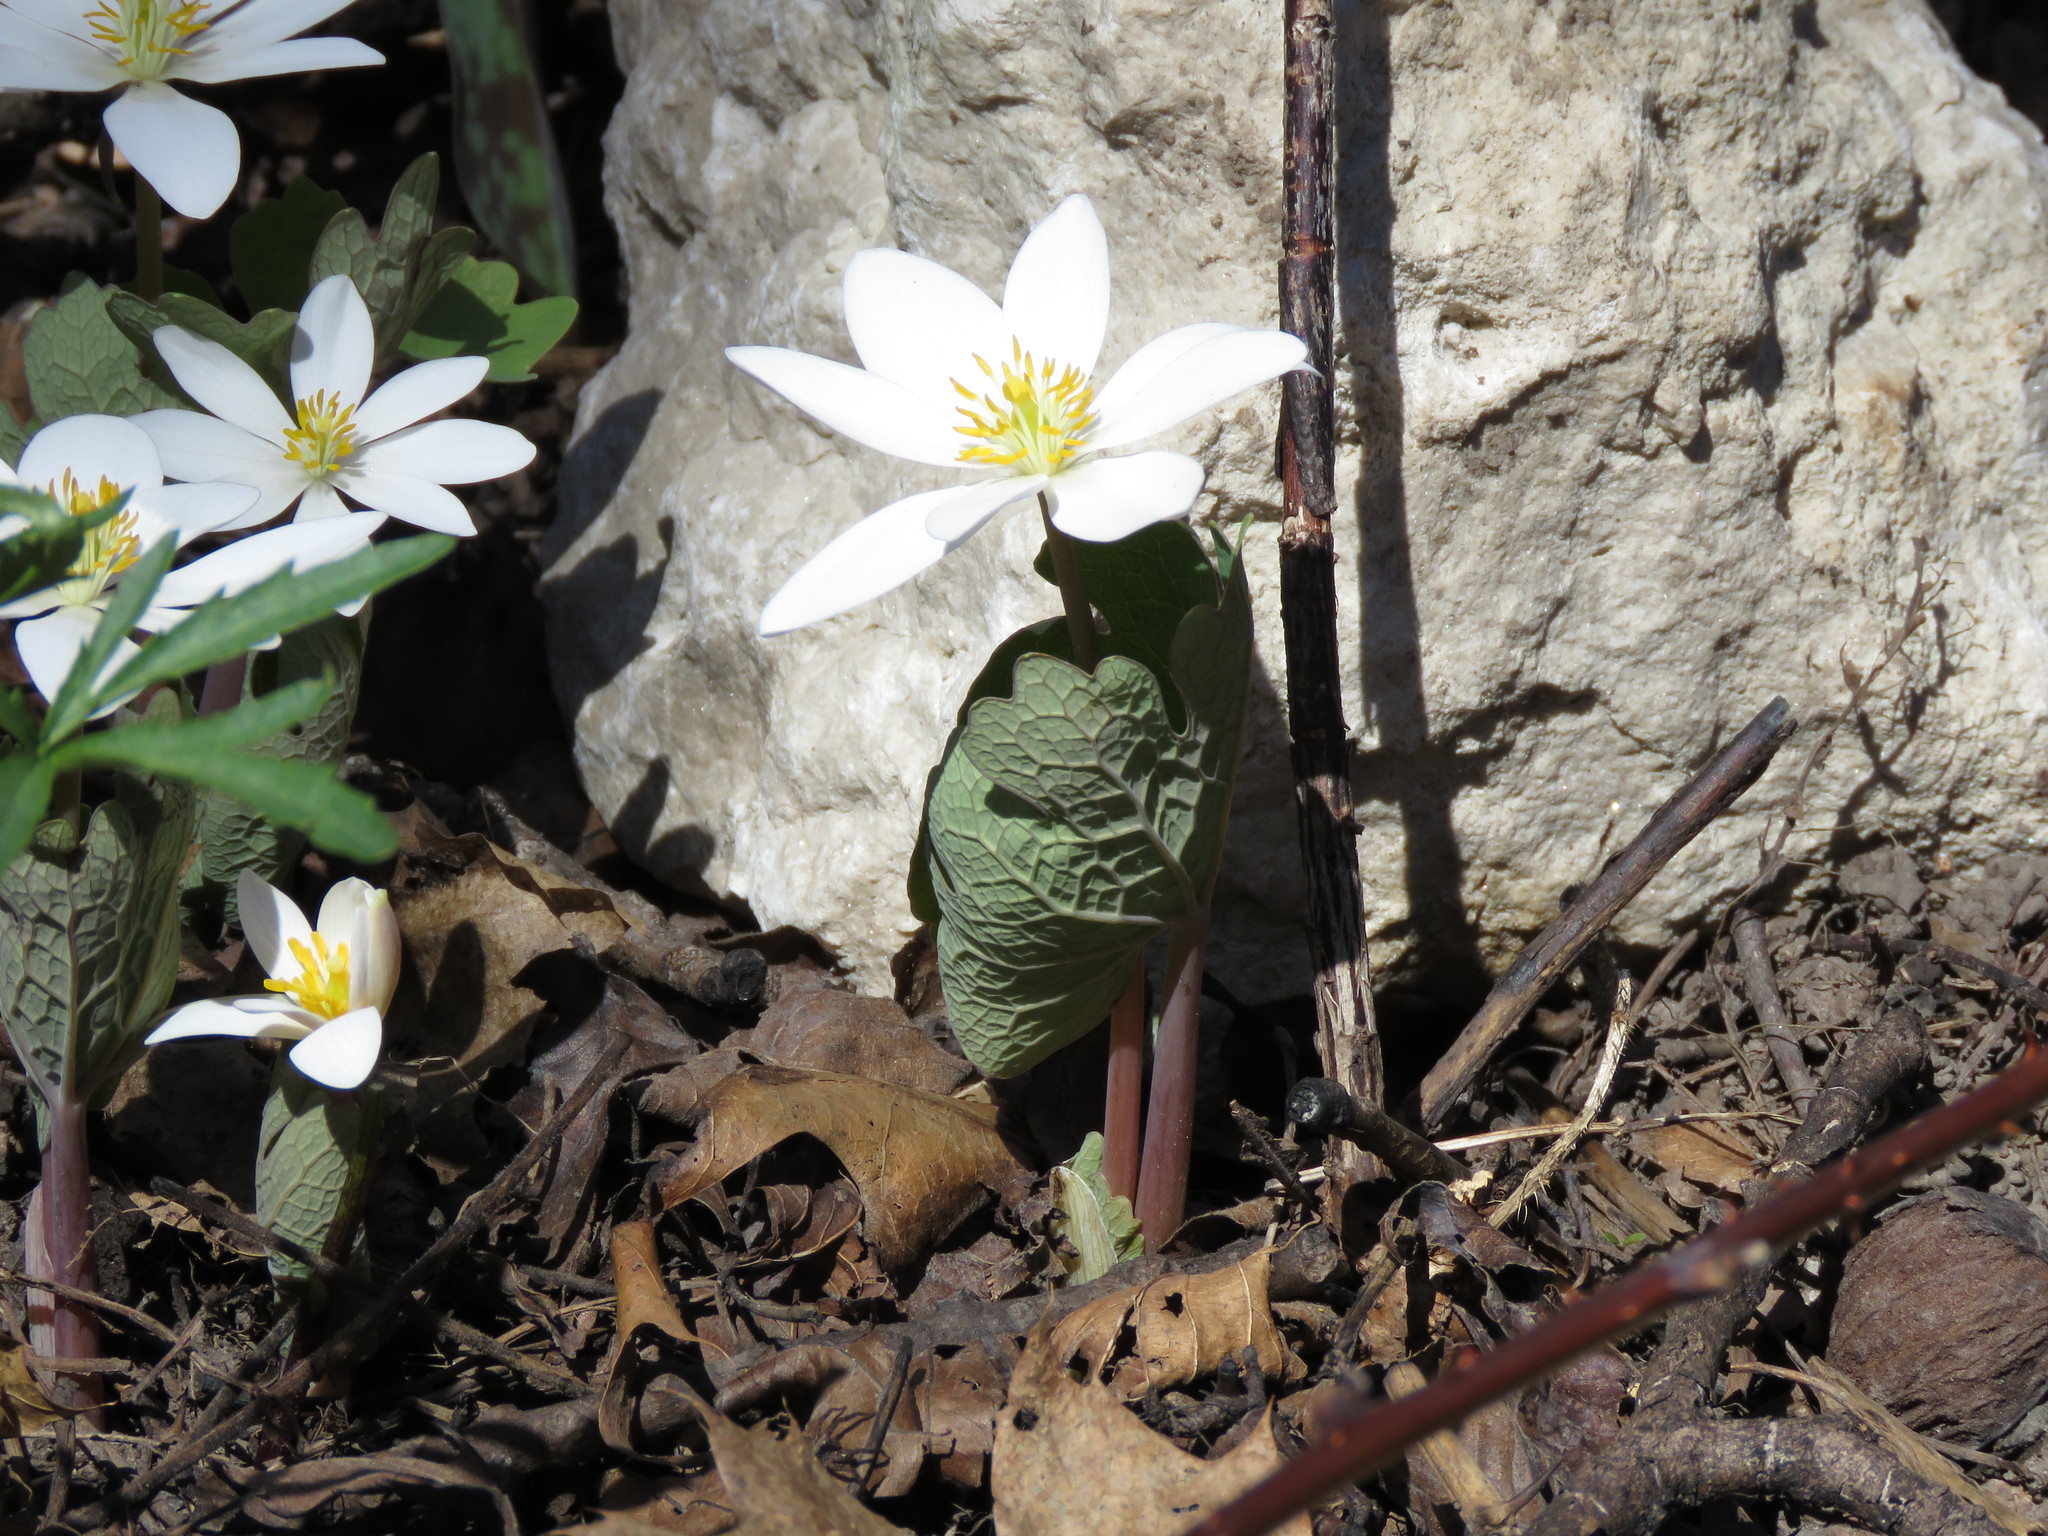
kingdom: Plantae
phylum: Tracheophyta
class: Magnoliopsida
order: Ranunculales
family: Papaveraceae
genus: Sanguinaria
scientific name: Sanguinaria canadensis
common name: Bloodroot
